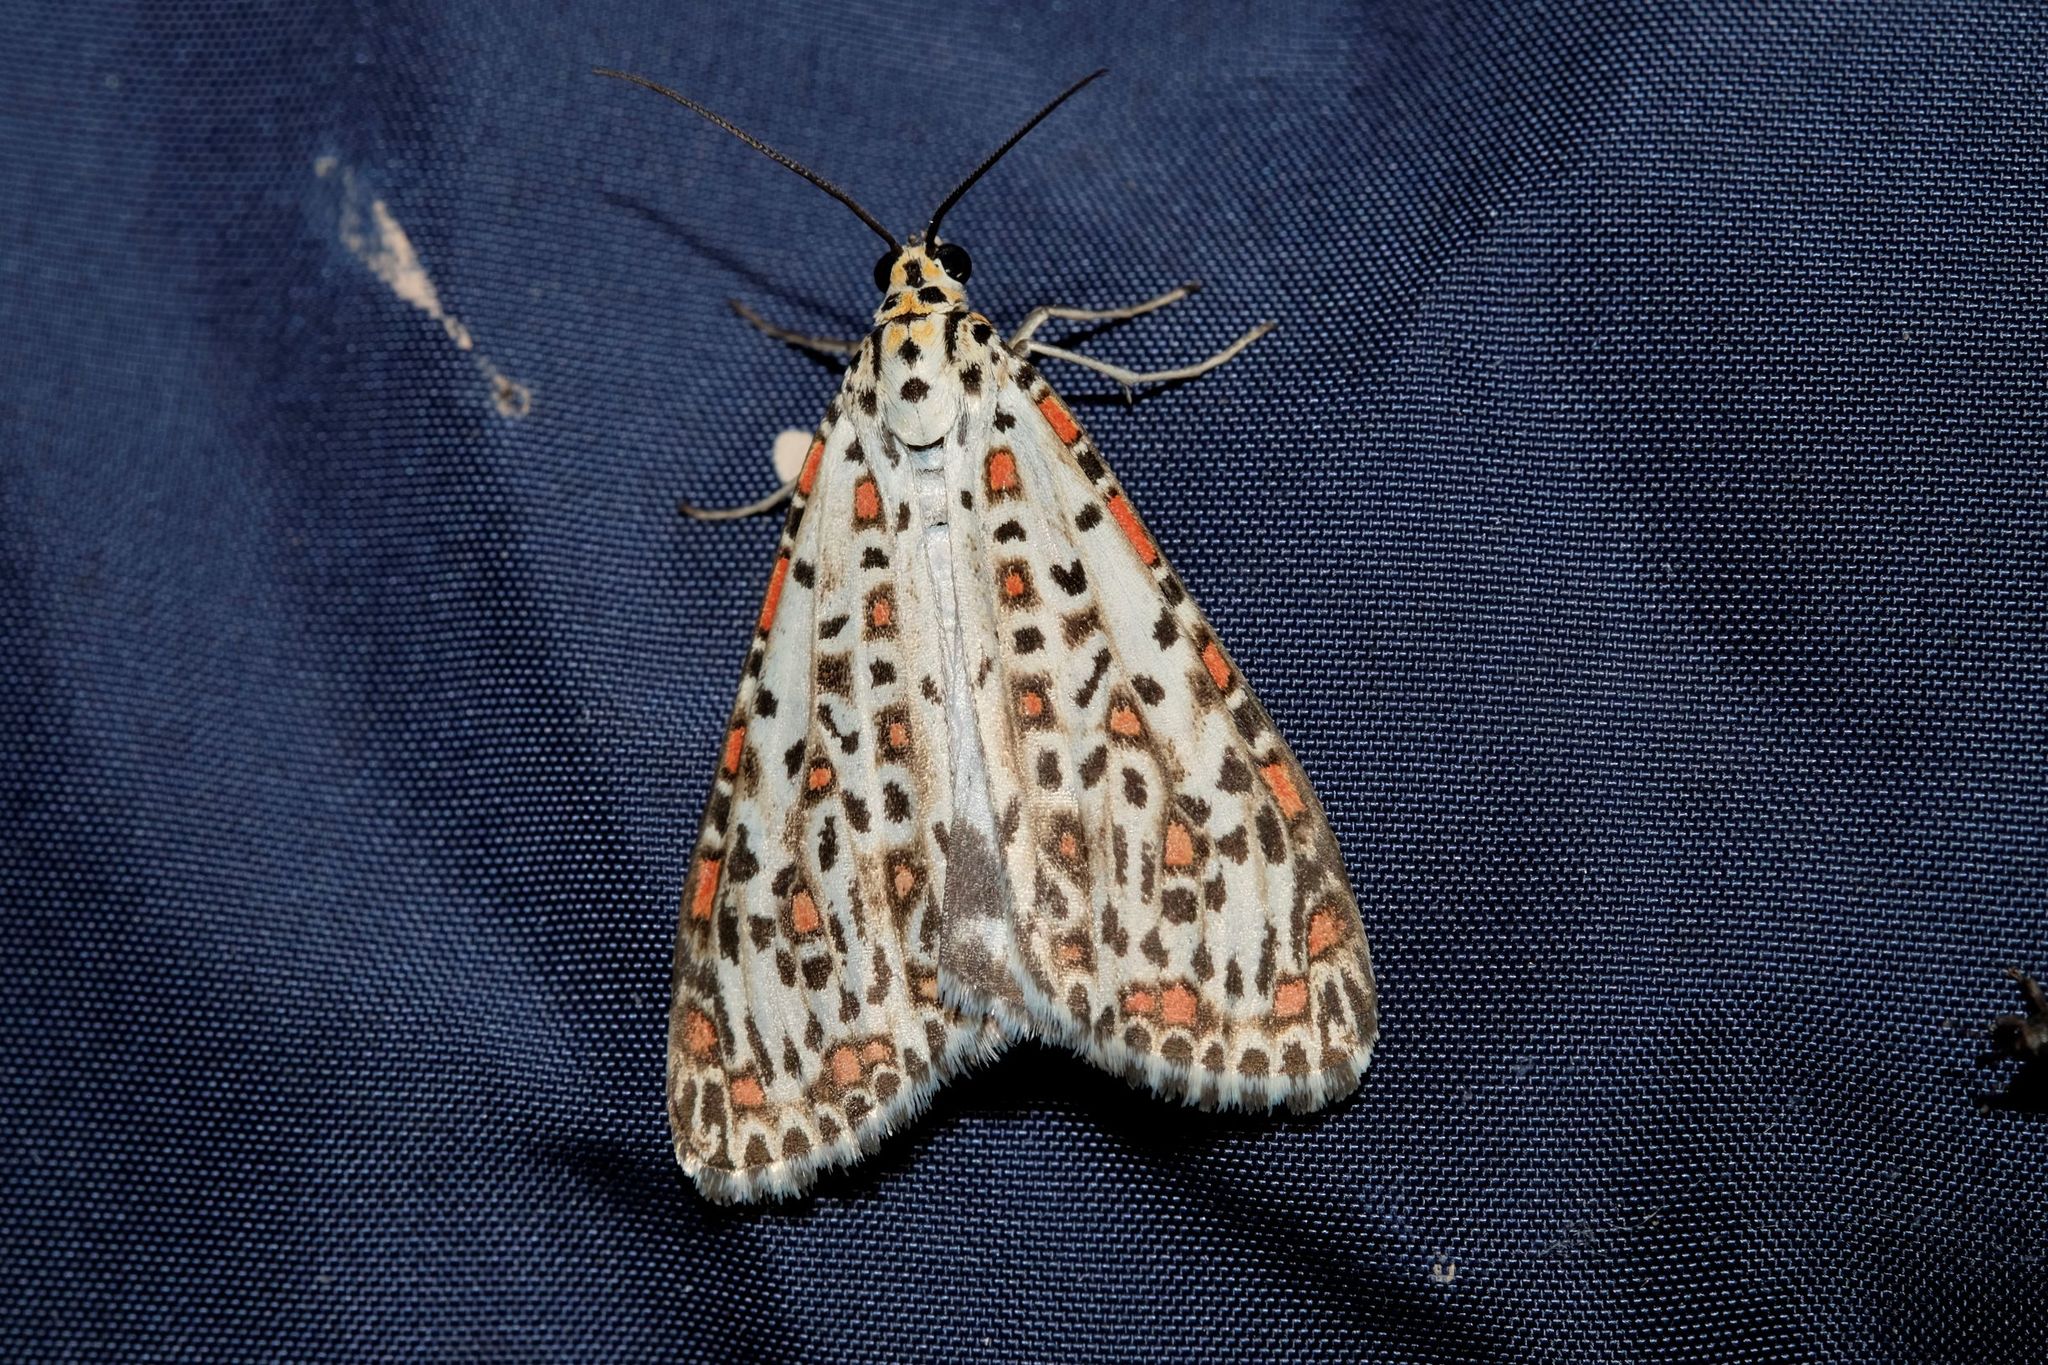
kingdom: Animalia
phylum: Arthropoda
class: Insecta
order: Lepidoptera
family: Erebidae
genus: Utetheisa
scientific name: Utetheisa pulchelloides
